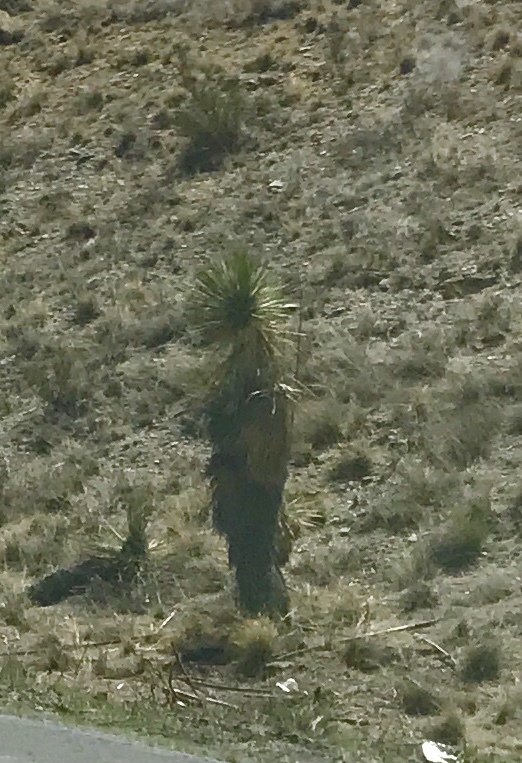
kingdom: Plantae
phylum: Tracheophyta
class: Liliopsida
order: Asparagales
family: Asparagaceae
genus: Yucca
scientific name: Yucca elata
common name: Palmella
